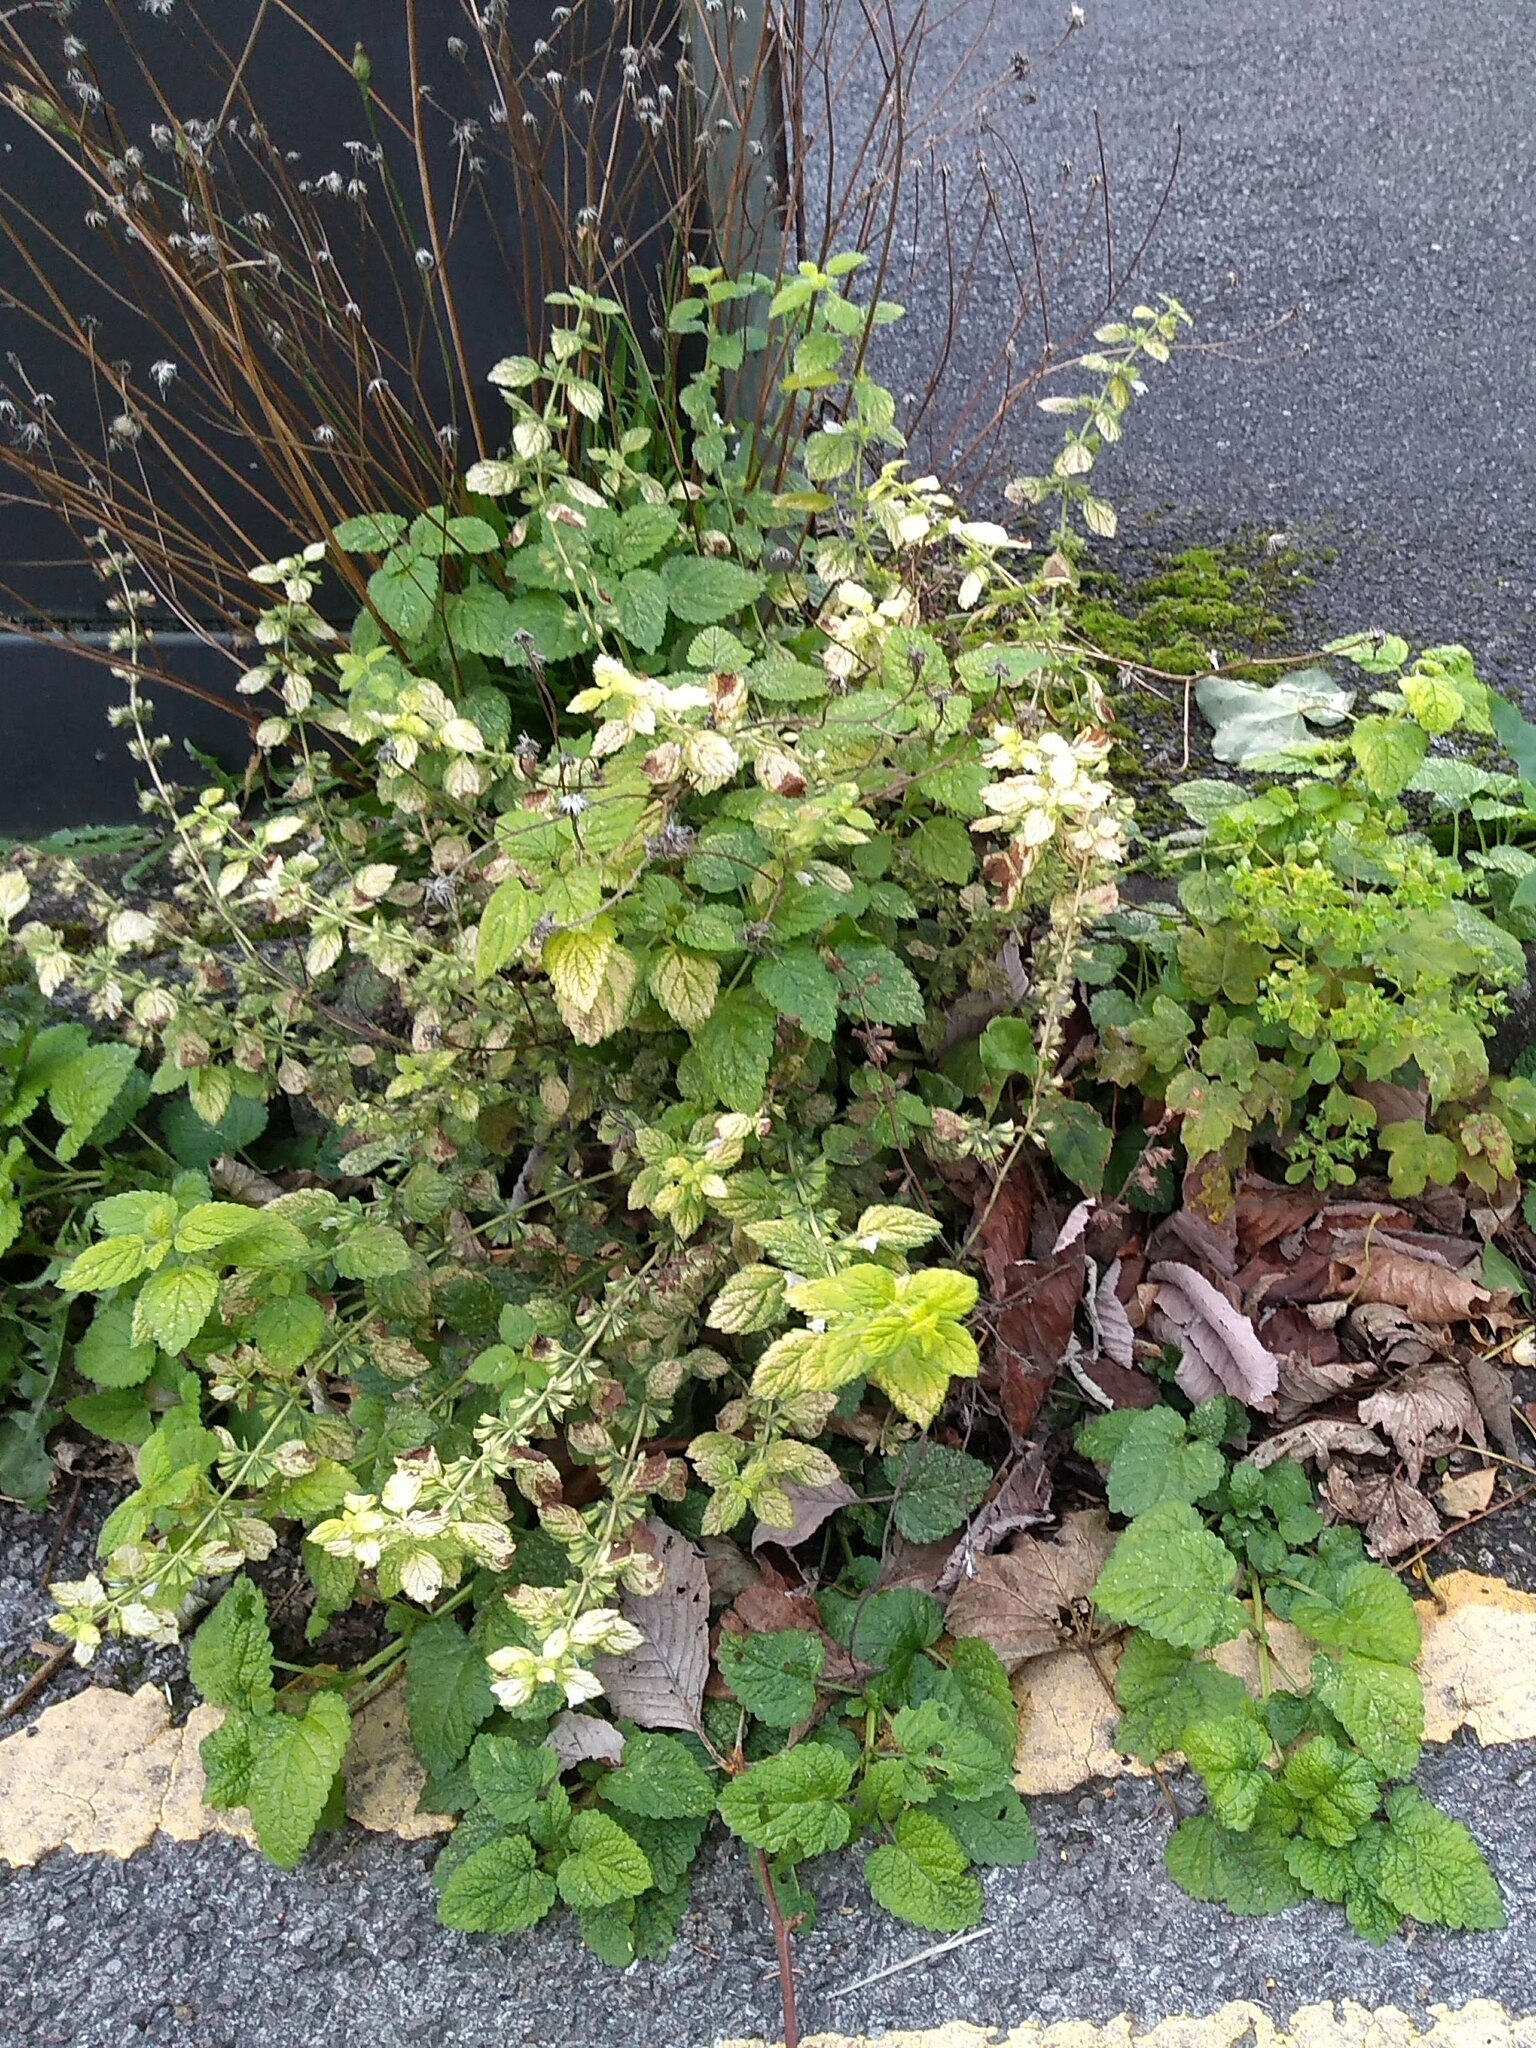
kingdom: Plantae
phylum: Tracheophyta
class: Magnoliopsida
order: Lamiales
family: Lamiaceae
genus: Melissa
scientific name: Melissa officinalis
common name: Balm
